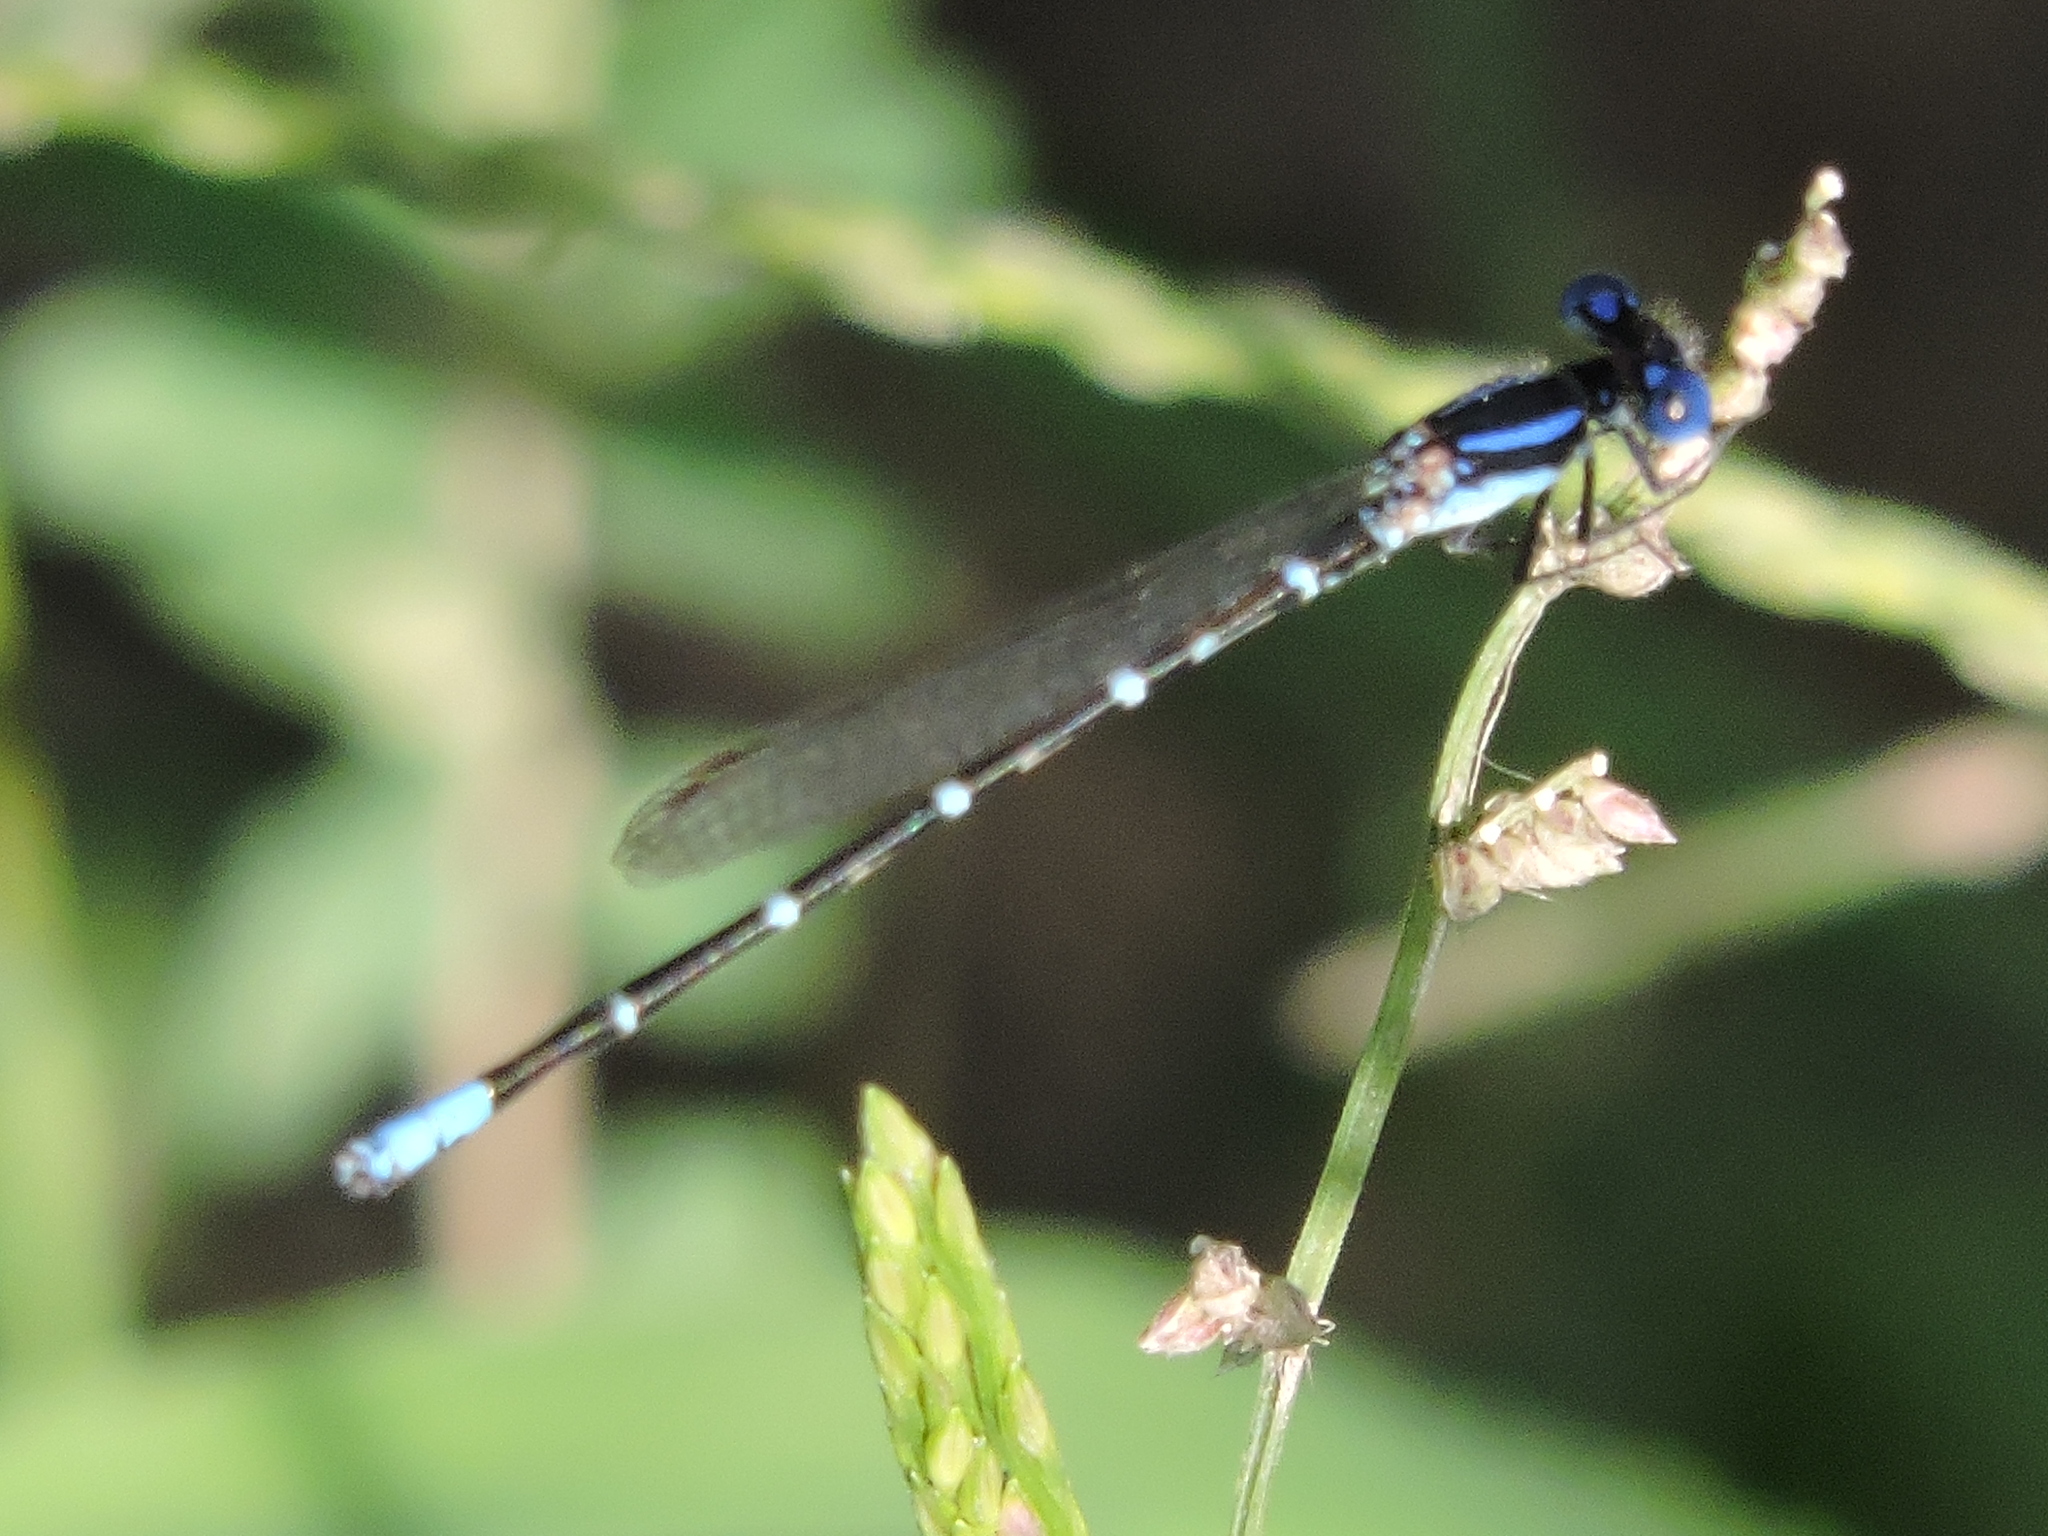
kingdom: Animalia
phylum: Arthropoda
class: Insecta
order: Odonata
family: Coenagrionidae
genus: Argia
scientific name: Argia sedula
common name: Blue-ringed dancer
